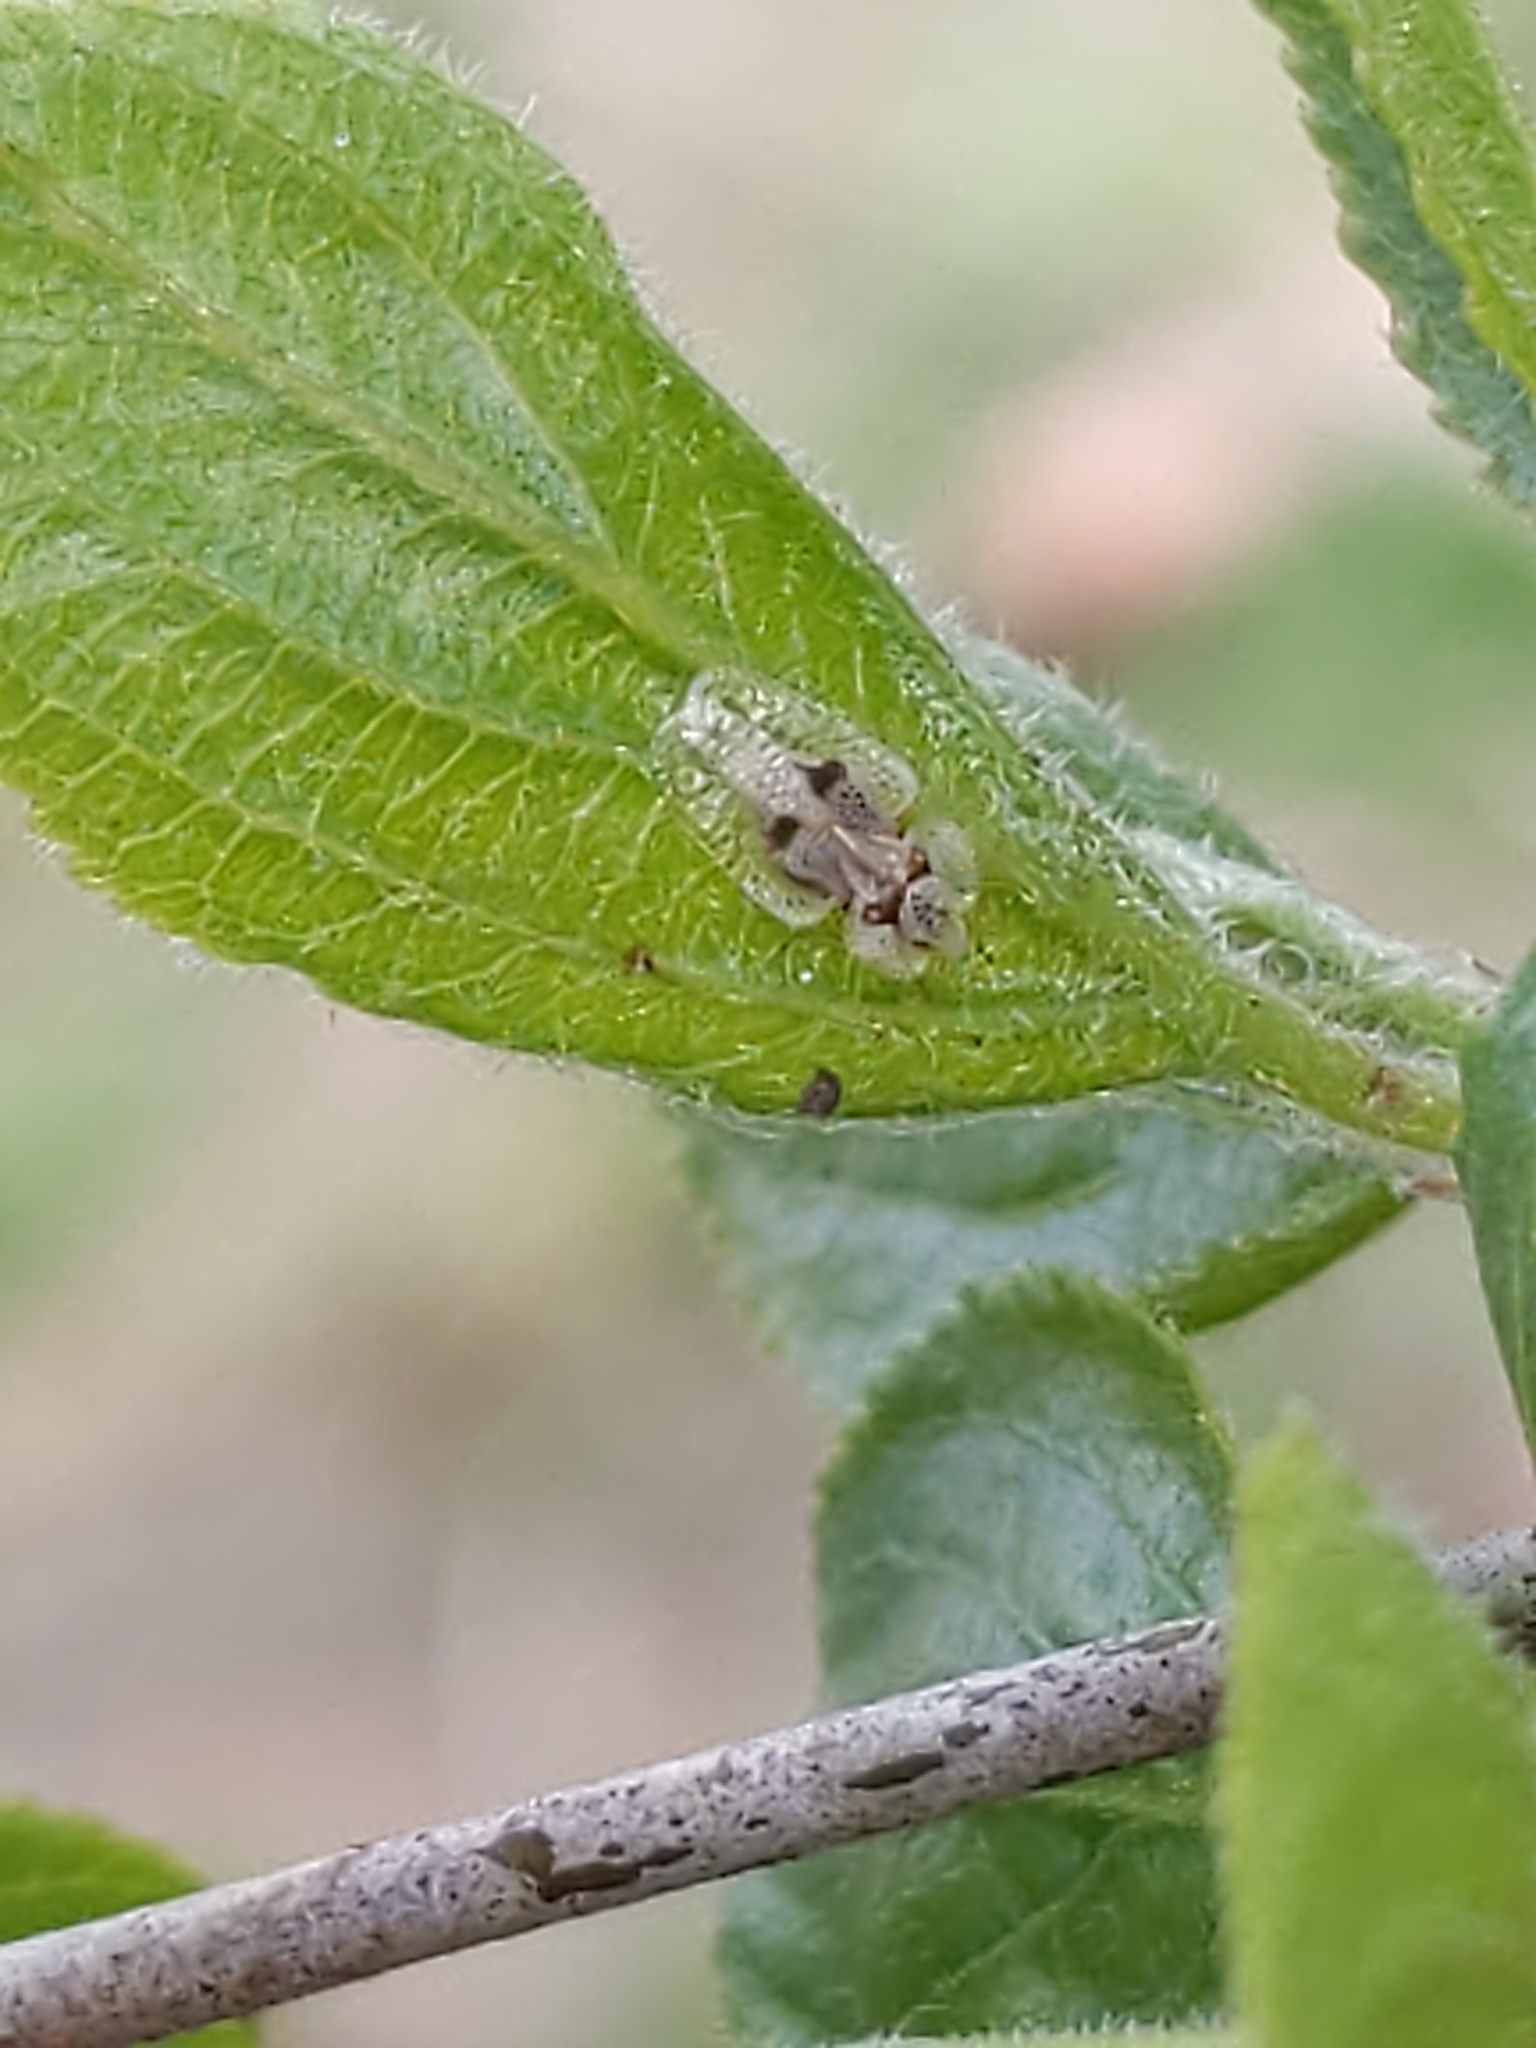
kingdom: Animalia
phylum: Arthropoda
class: Insecta
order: Hemiptera
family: Tingidae
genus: Corythucha
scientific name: Corythucha ciliata
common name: Sycamore lace bug
